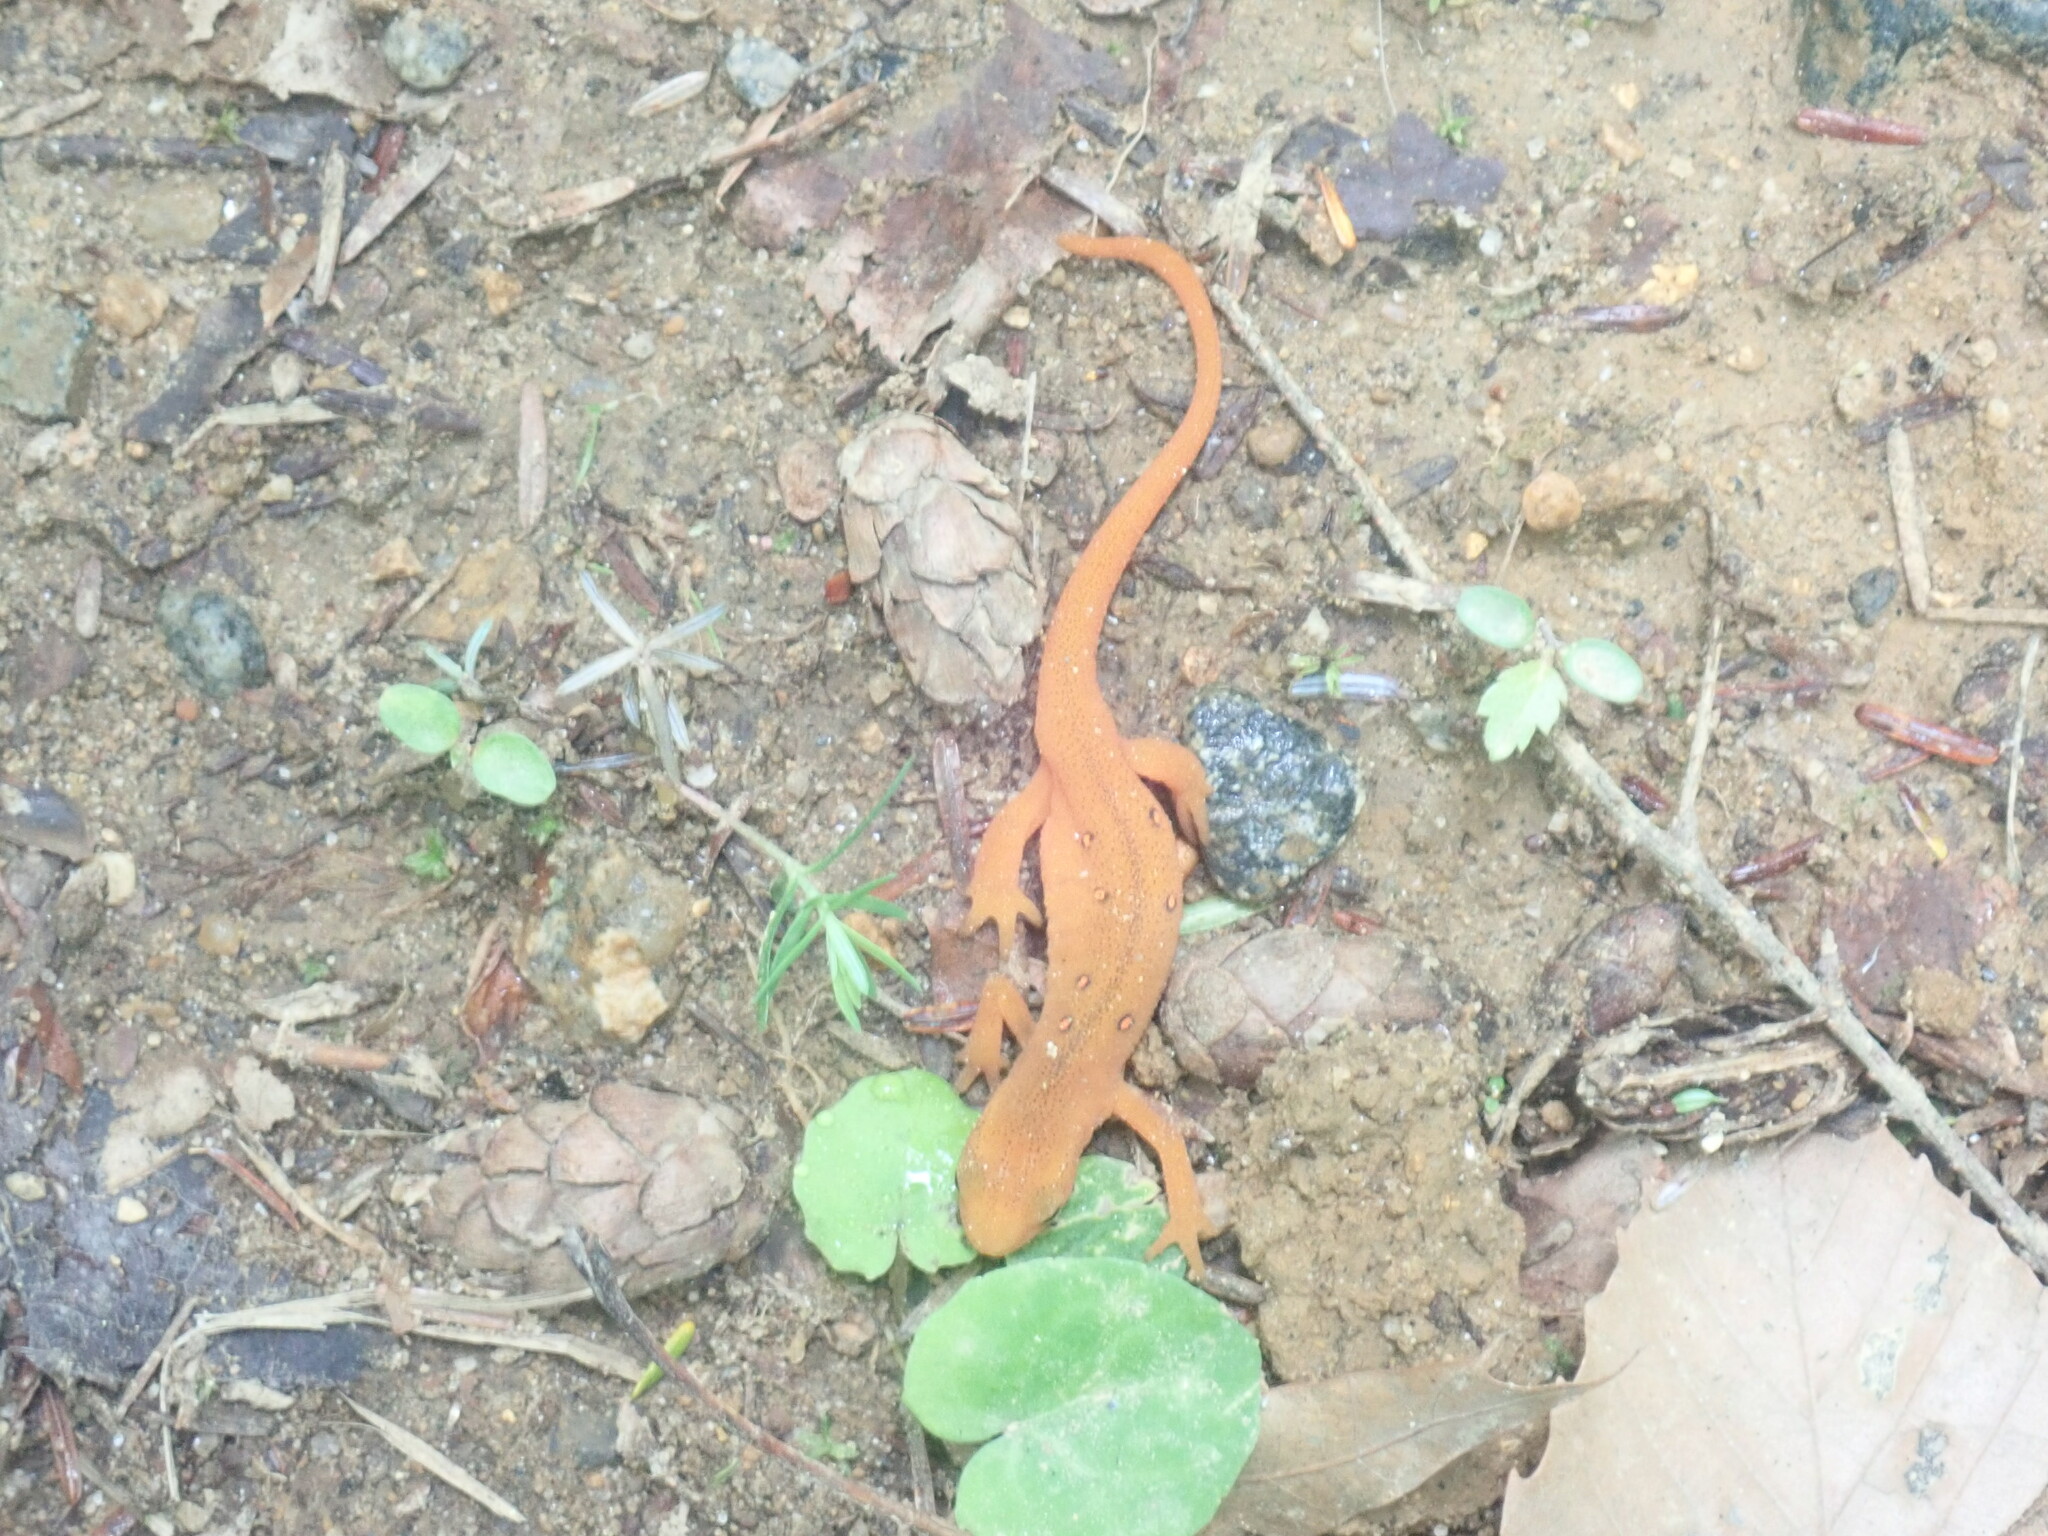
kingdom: Animalia
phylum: Chordata
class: Amphibia
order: Caudata
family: Salamandridae
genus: Notophthalmus
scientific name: Notophthalmus viridescens
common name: Eastern newt
